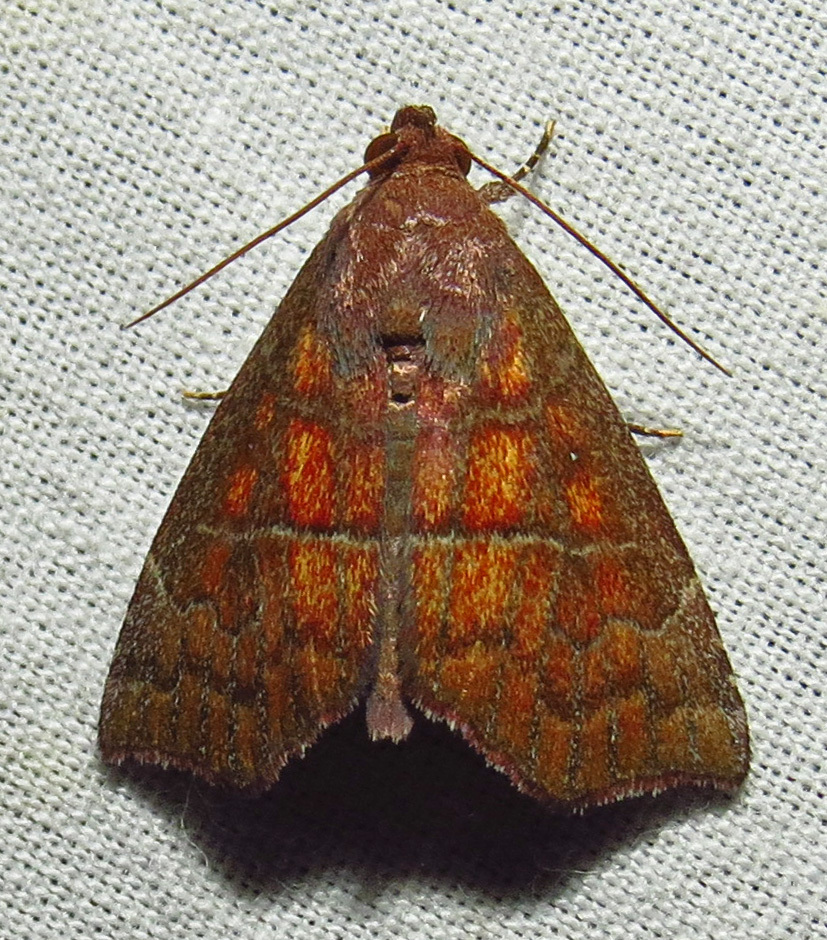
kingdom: Animalia
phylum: Arthropoda
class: Insecta
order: Lepidoptera
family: Erebidae
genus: Anomis
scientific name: Anomis gentilis
